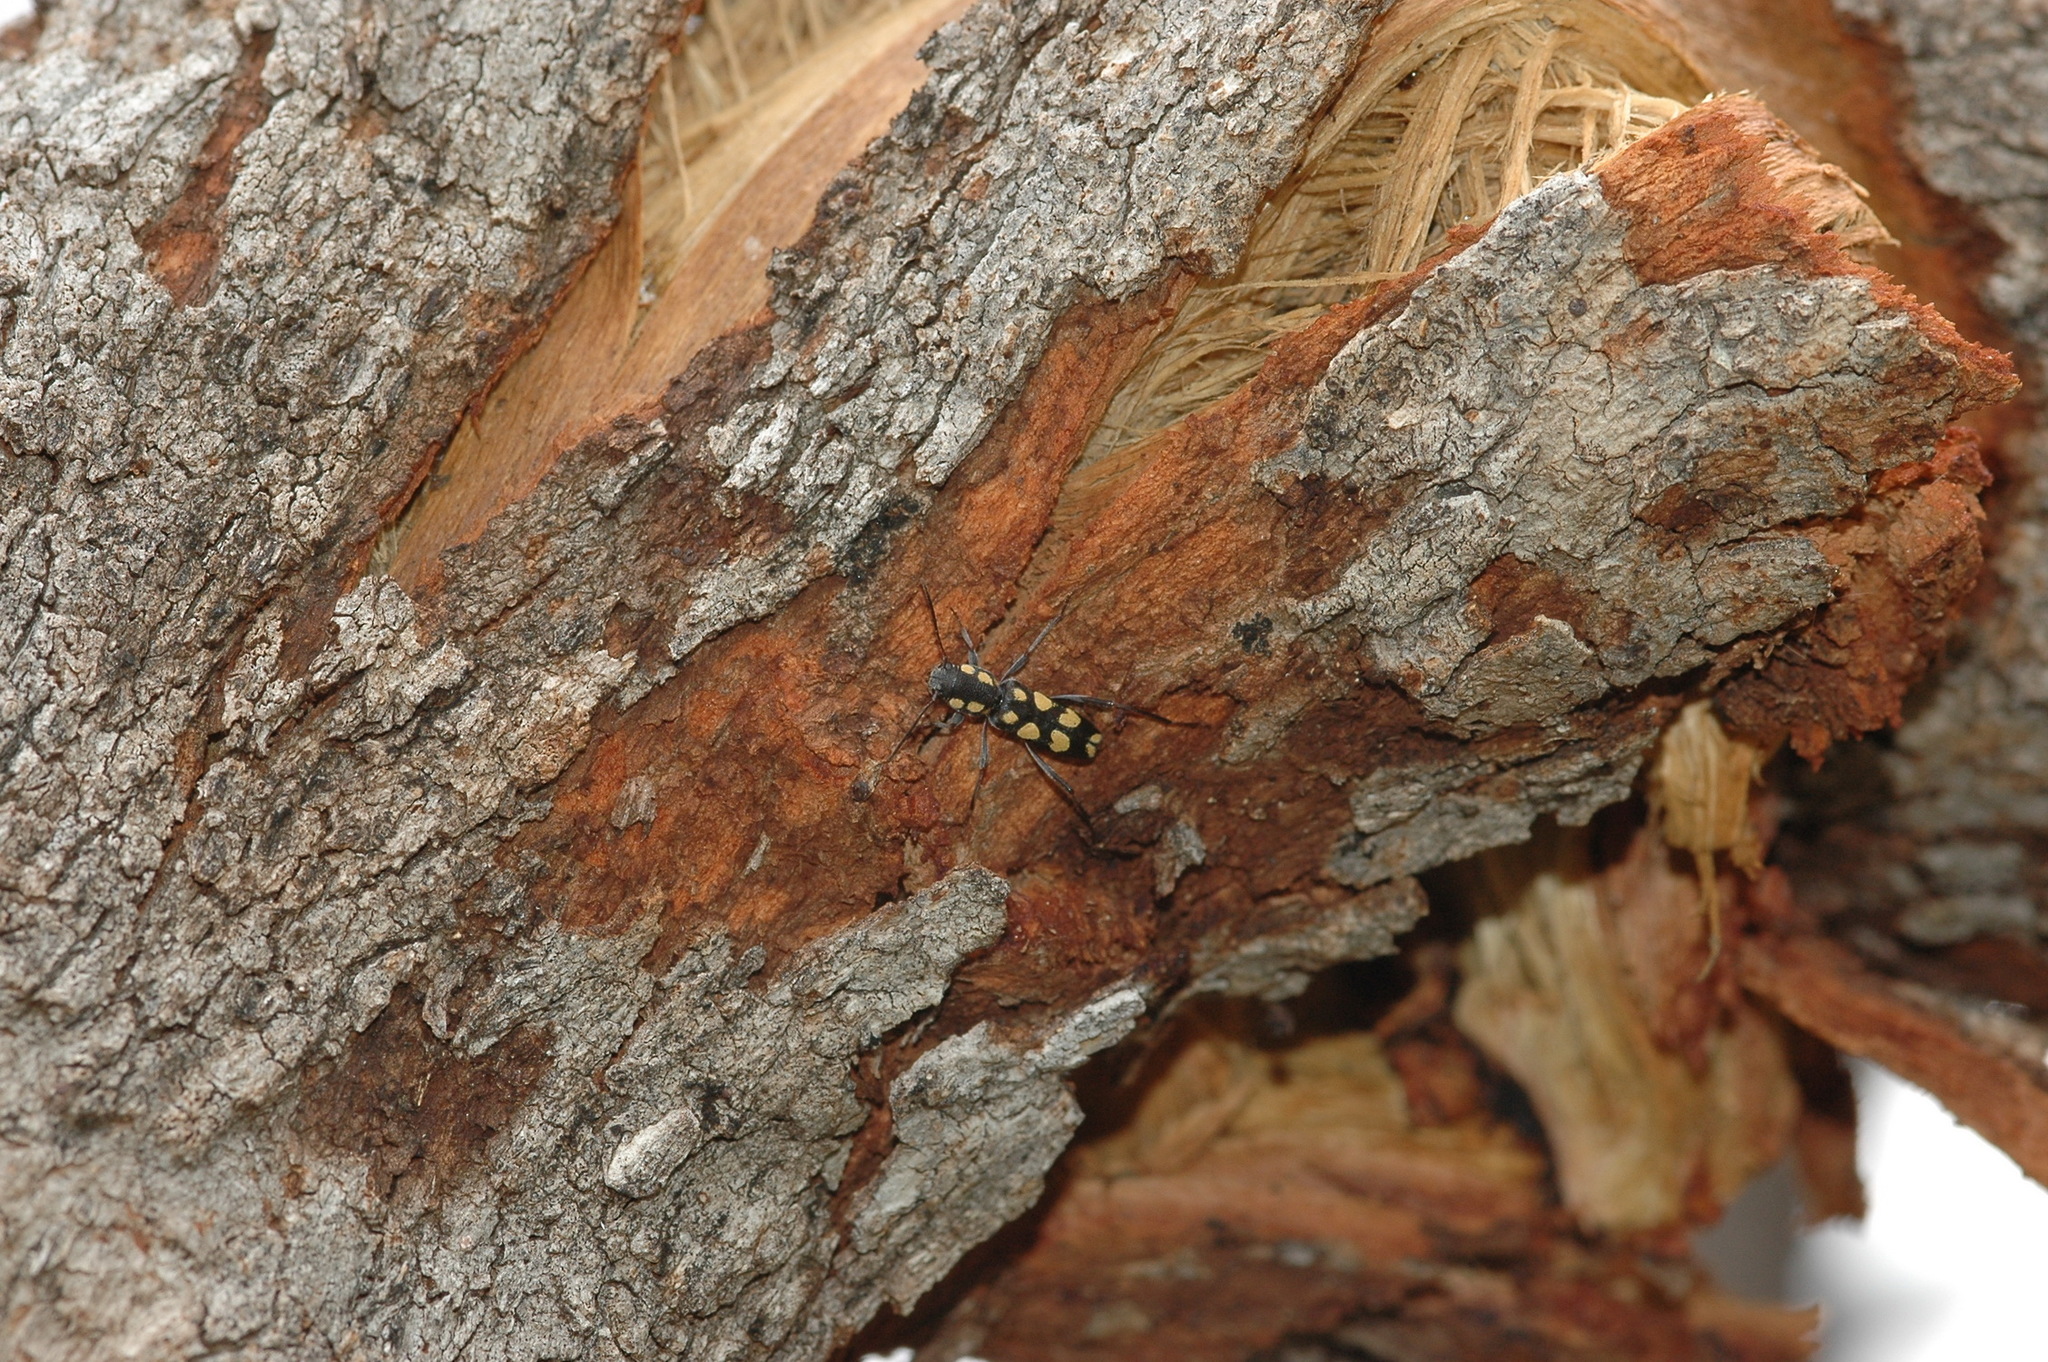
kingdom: Animalia
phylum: Arthropoda
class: Insecta
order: Coleoptera
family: Cerambycidae
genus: Calanthemis
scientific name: Calanthemis flavomaculatus
